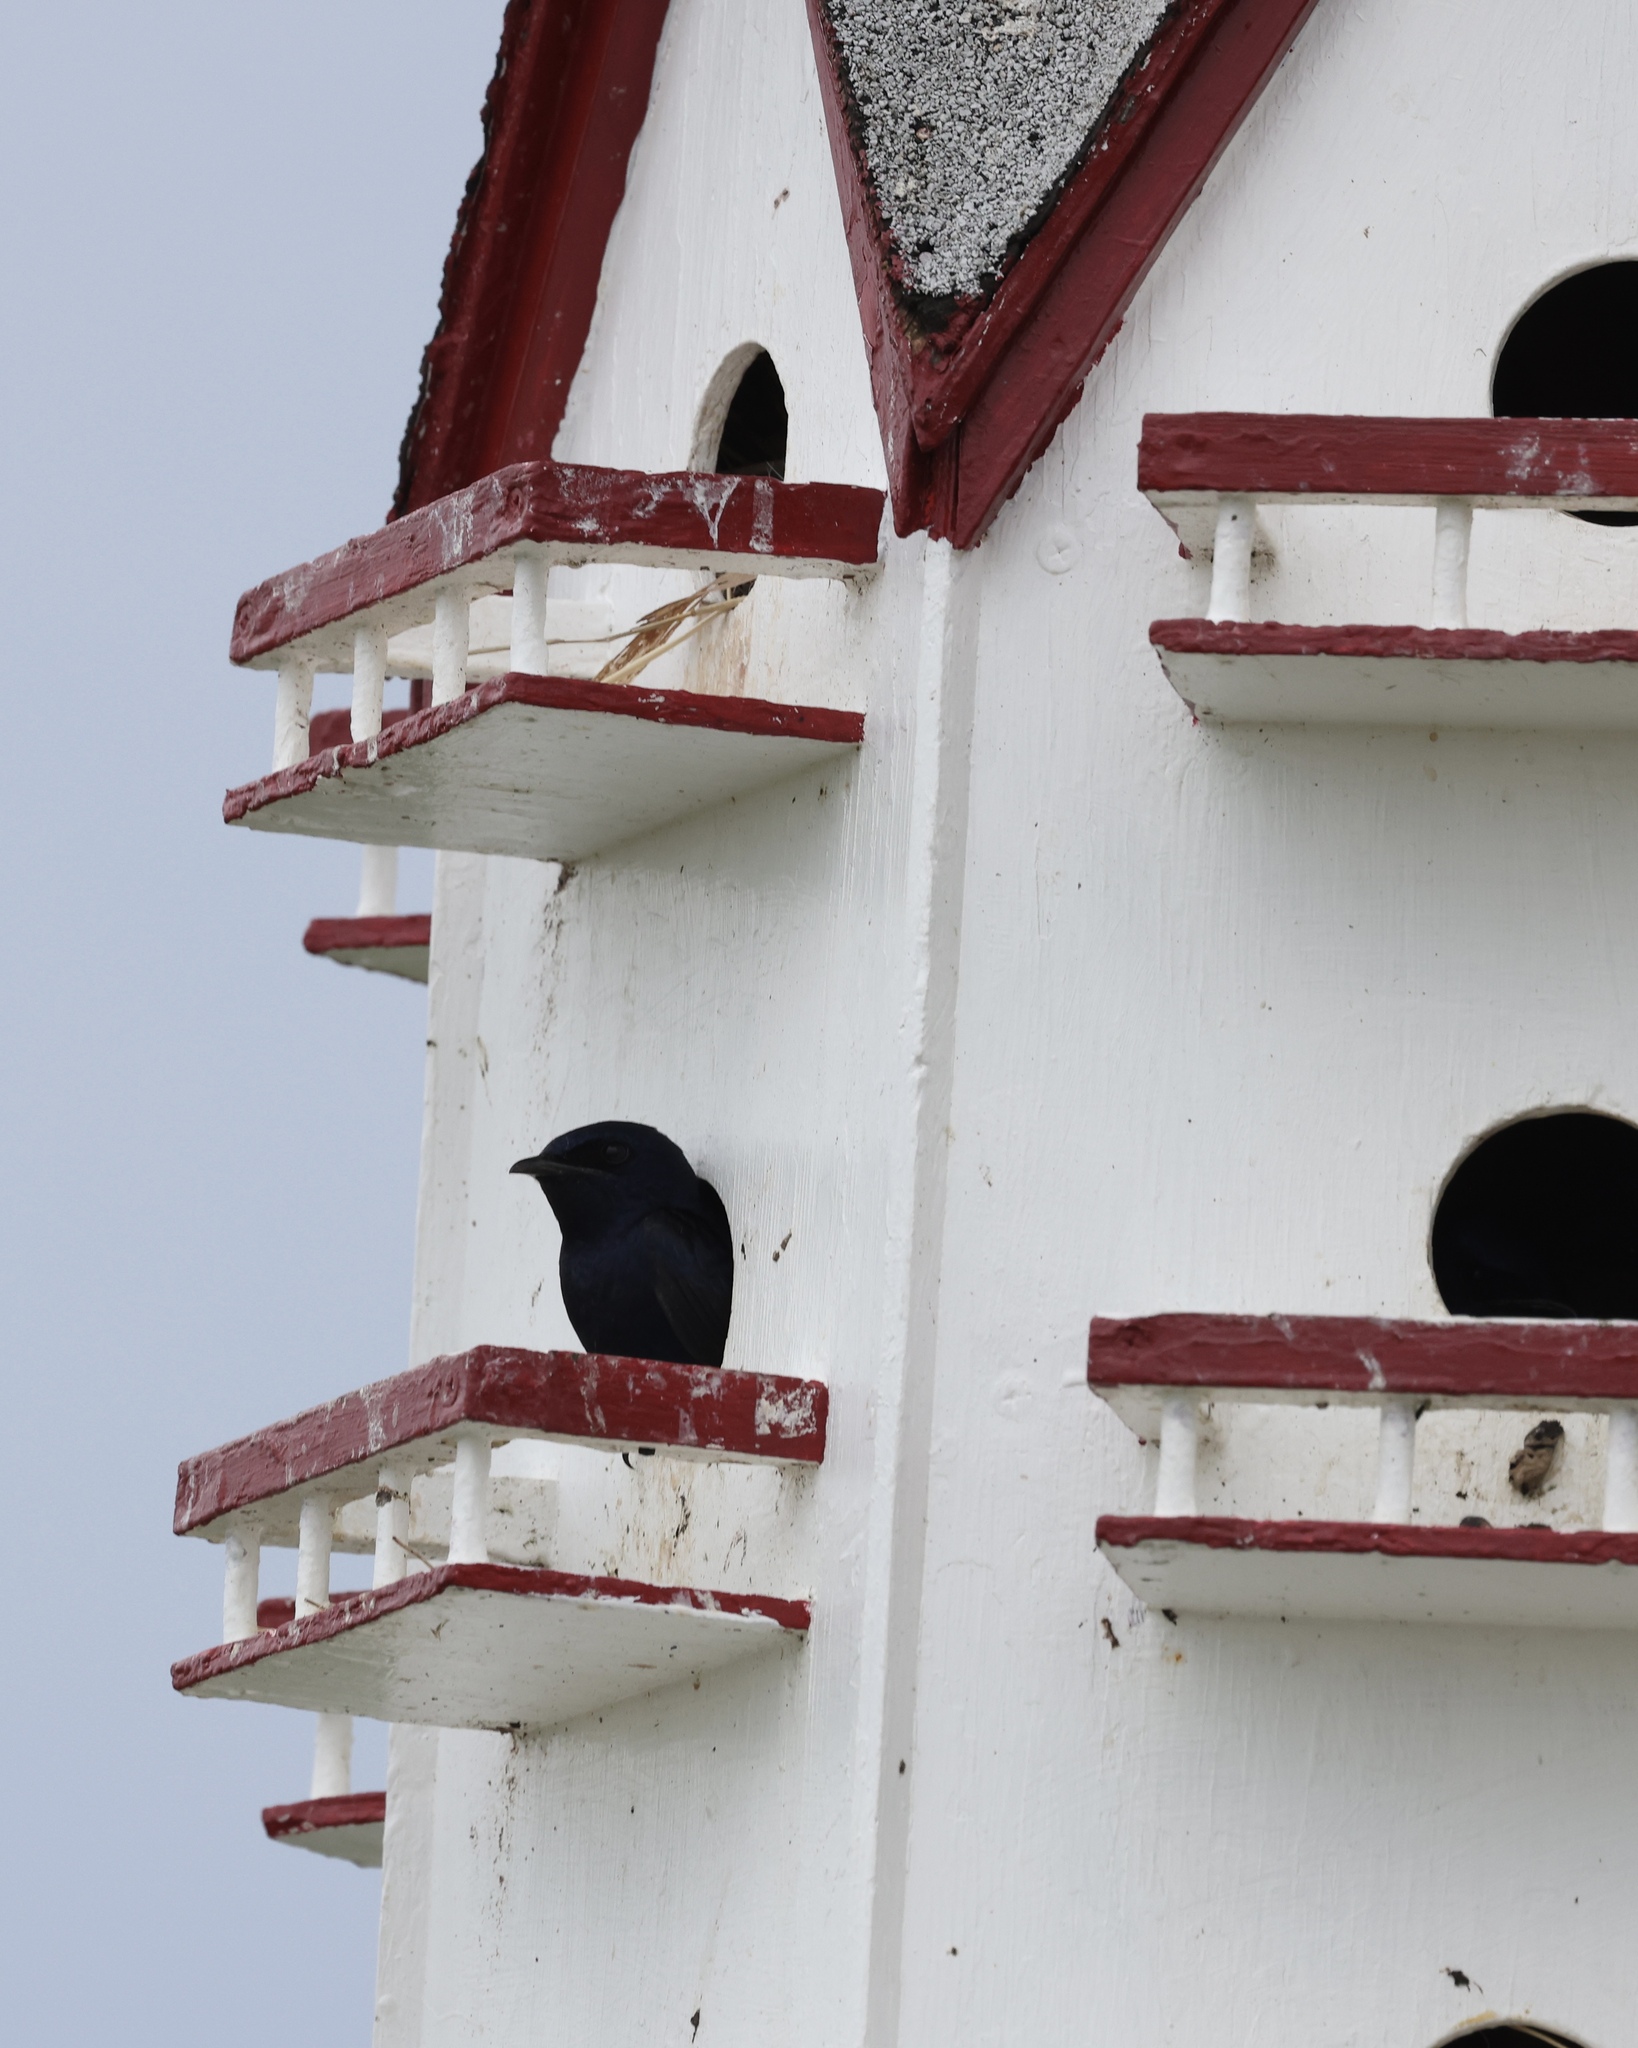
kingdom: Animalia
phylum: Chordata
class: Aves
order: Passeriformes
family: Hirundinidae
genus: Progne
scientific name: Progne subis
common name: Purple martin
